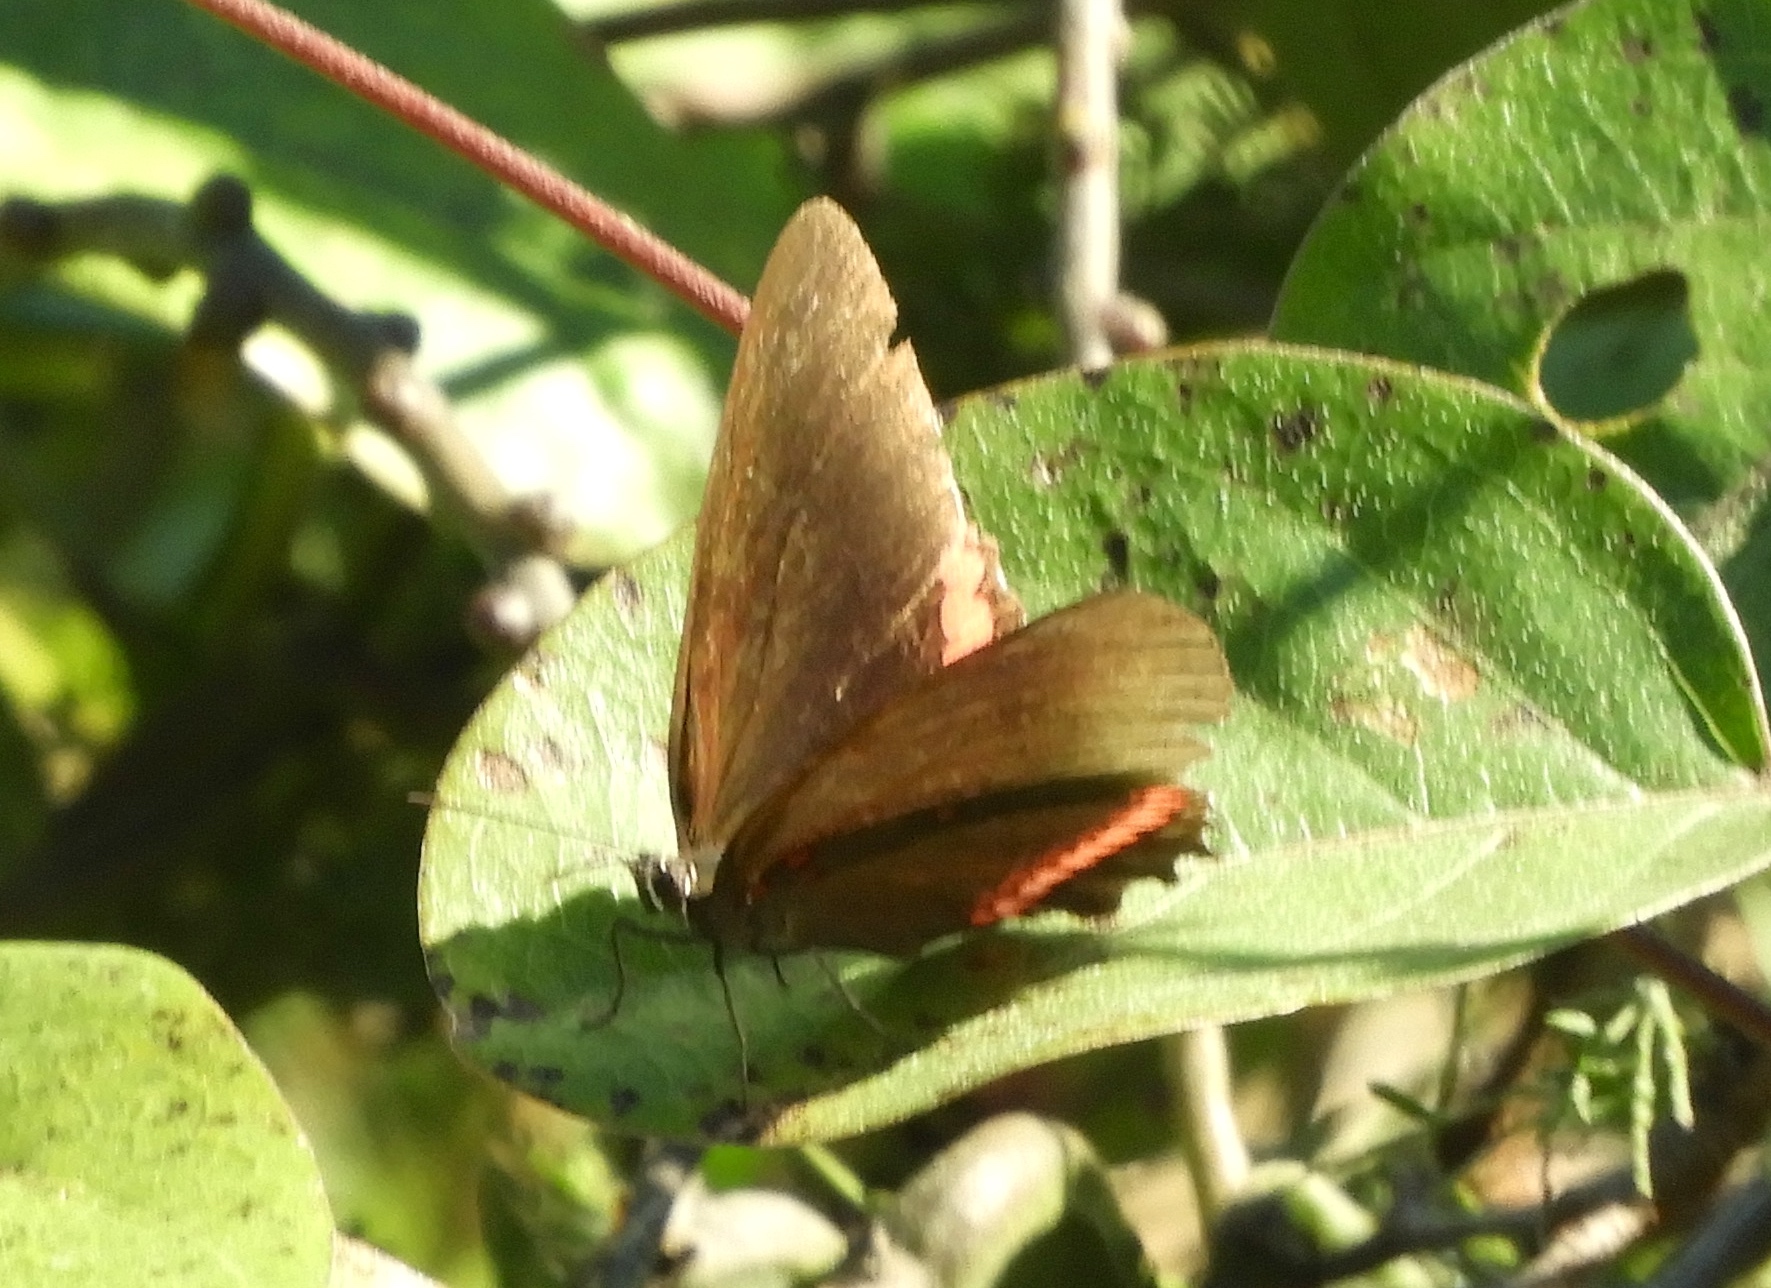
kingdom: Animalia
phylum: Arthropoda
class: Insecta
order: Lepidoptera
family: Nymphalidae
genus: Biblis
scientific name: Biblis aganisa
